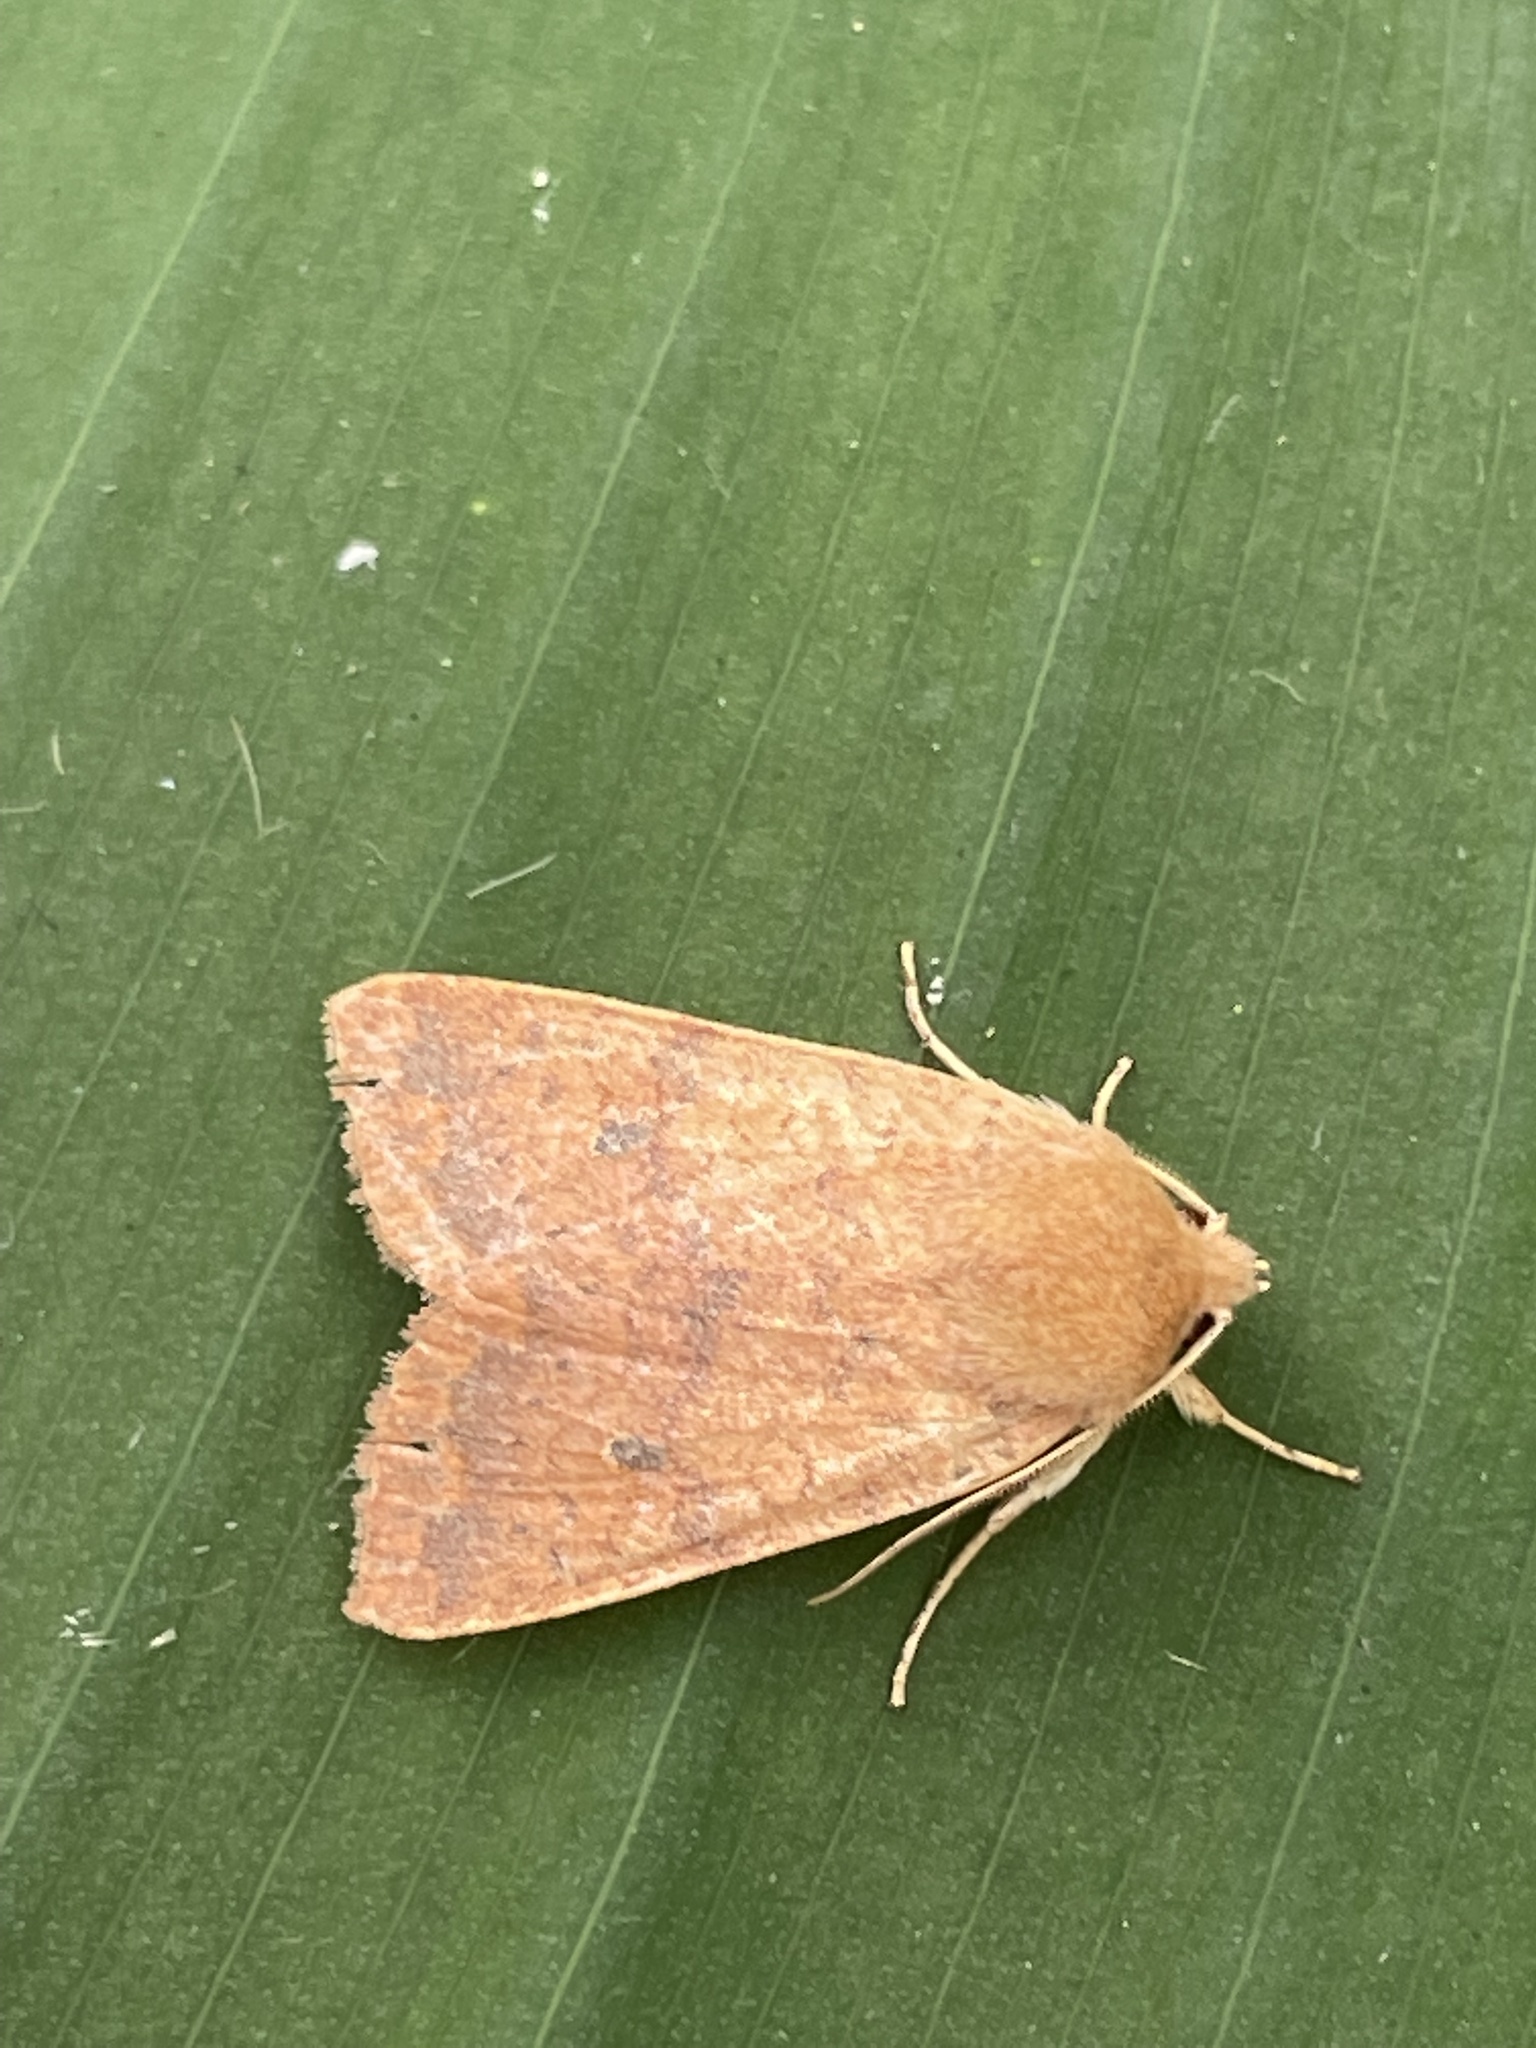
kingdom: Animalia
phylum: Arthropoda
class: Insecta
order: Lepidoptera
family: Noctuidae
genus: Agrochola
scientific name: Agrochola bicolorago
